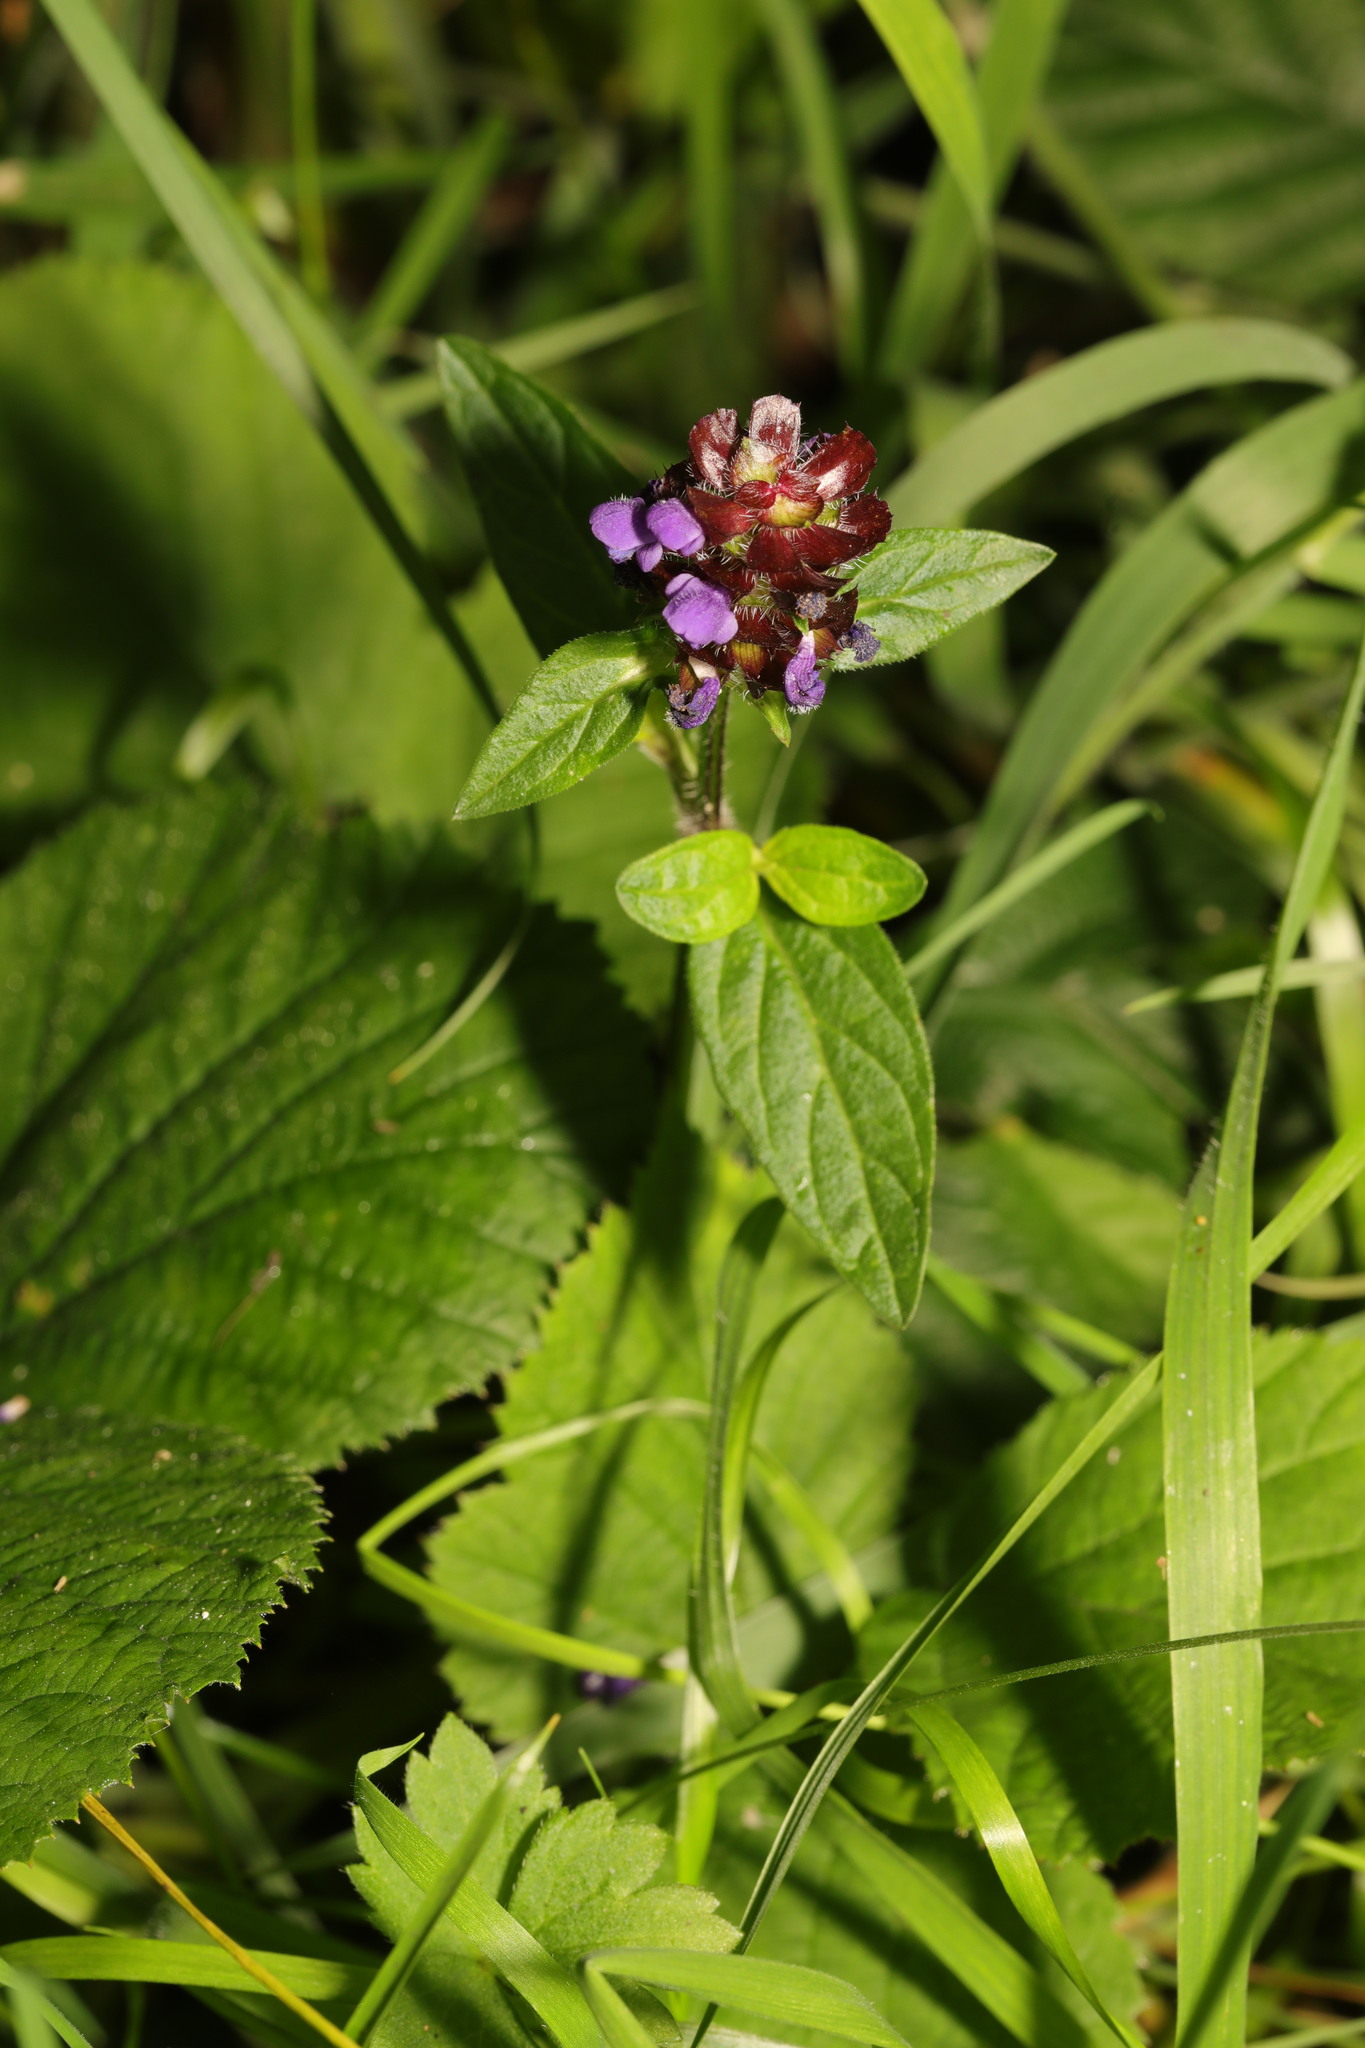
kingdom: Plantae
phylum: Tracheophyta
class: Magnoliopsida
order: Lamiales
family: Lamiaceae
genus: Prunella
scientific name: Prunella vulgaris
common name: Heal-all
